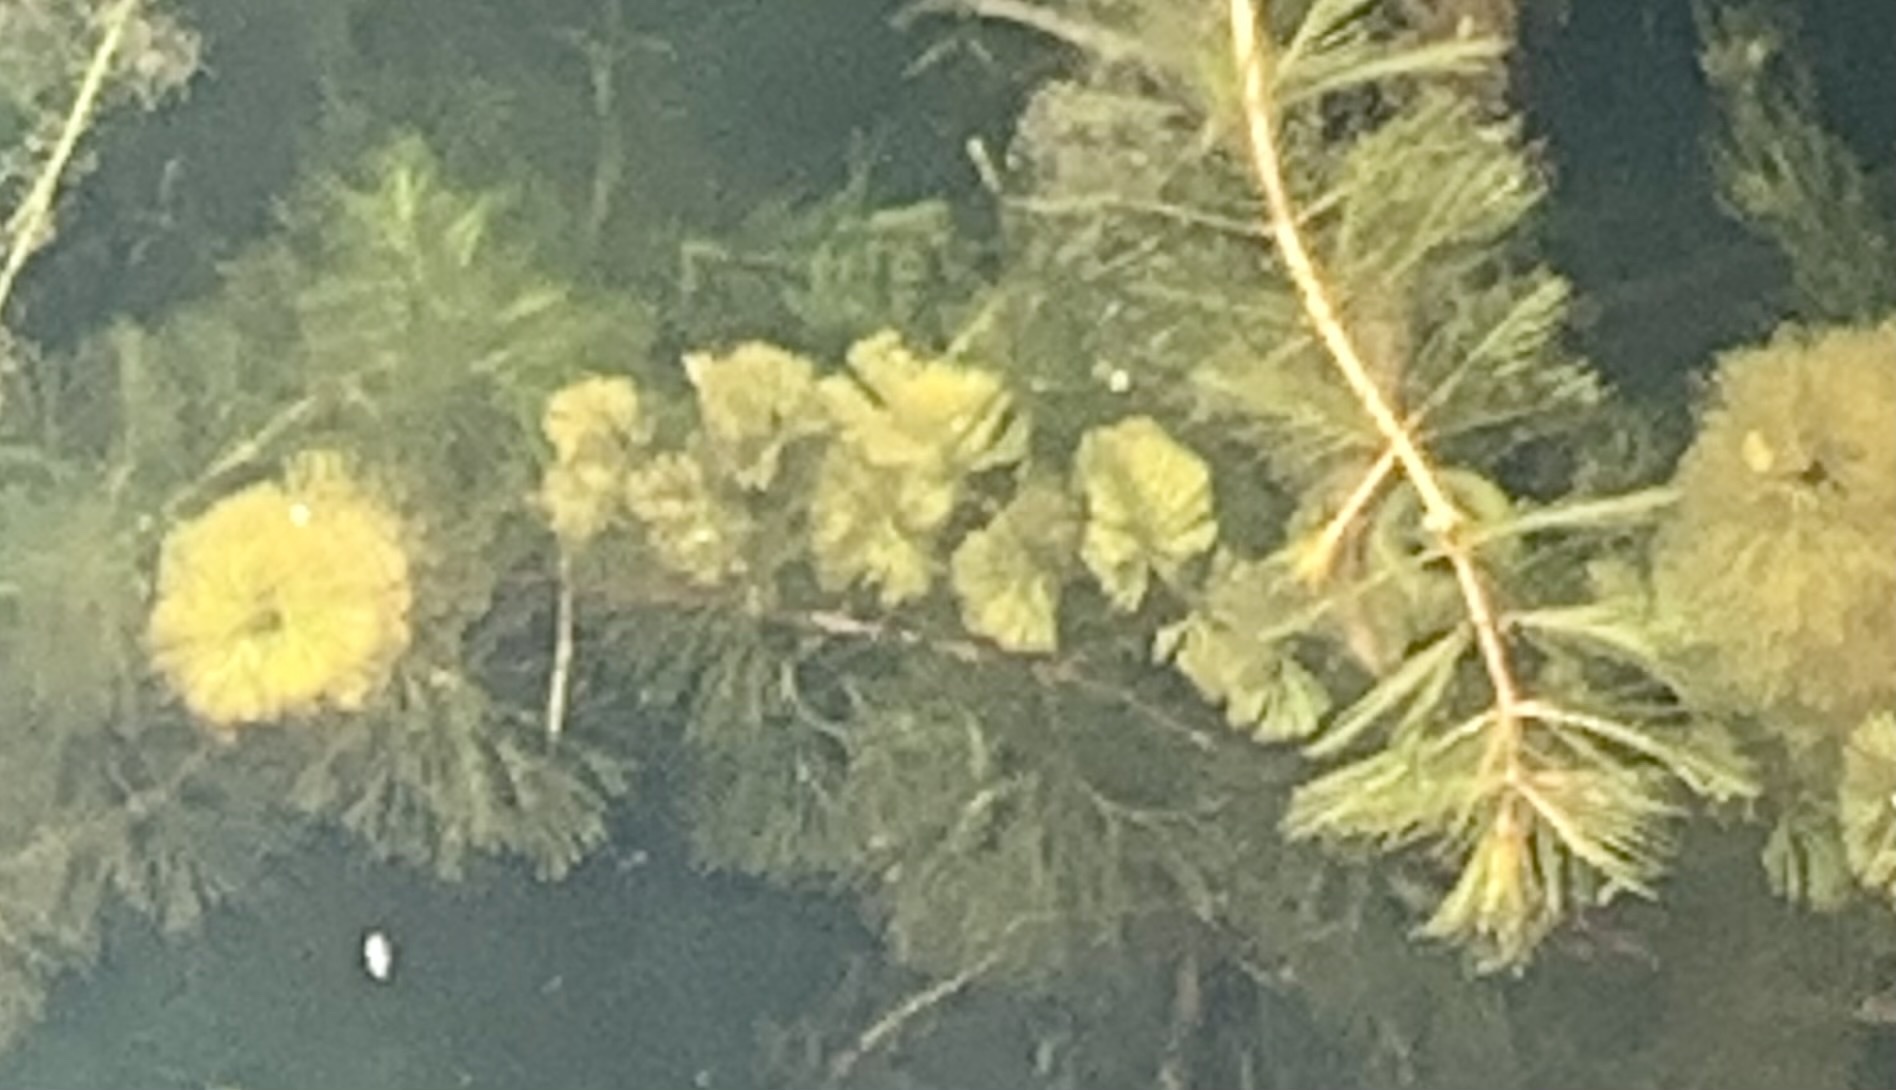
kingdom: Plantae
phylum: Tracheophyta
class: Magnoliopsida
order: Saxifragales
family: Haloragaceae
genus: Myriophyllum
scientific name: Myriophyllum spicatum
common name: Spiked water-milfoil
